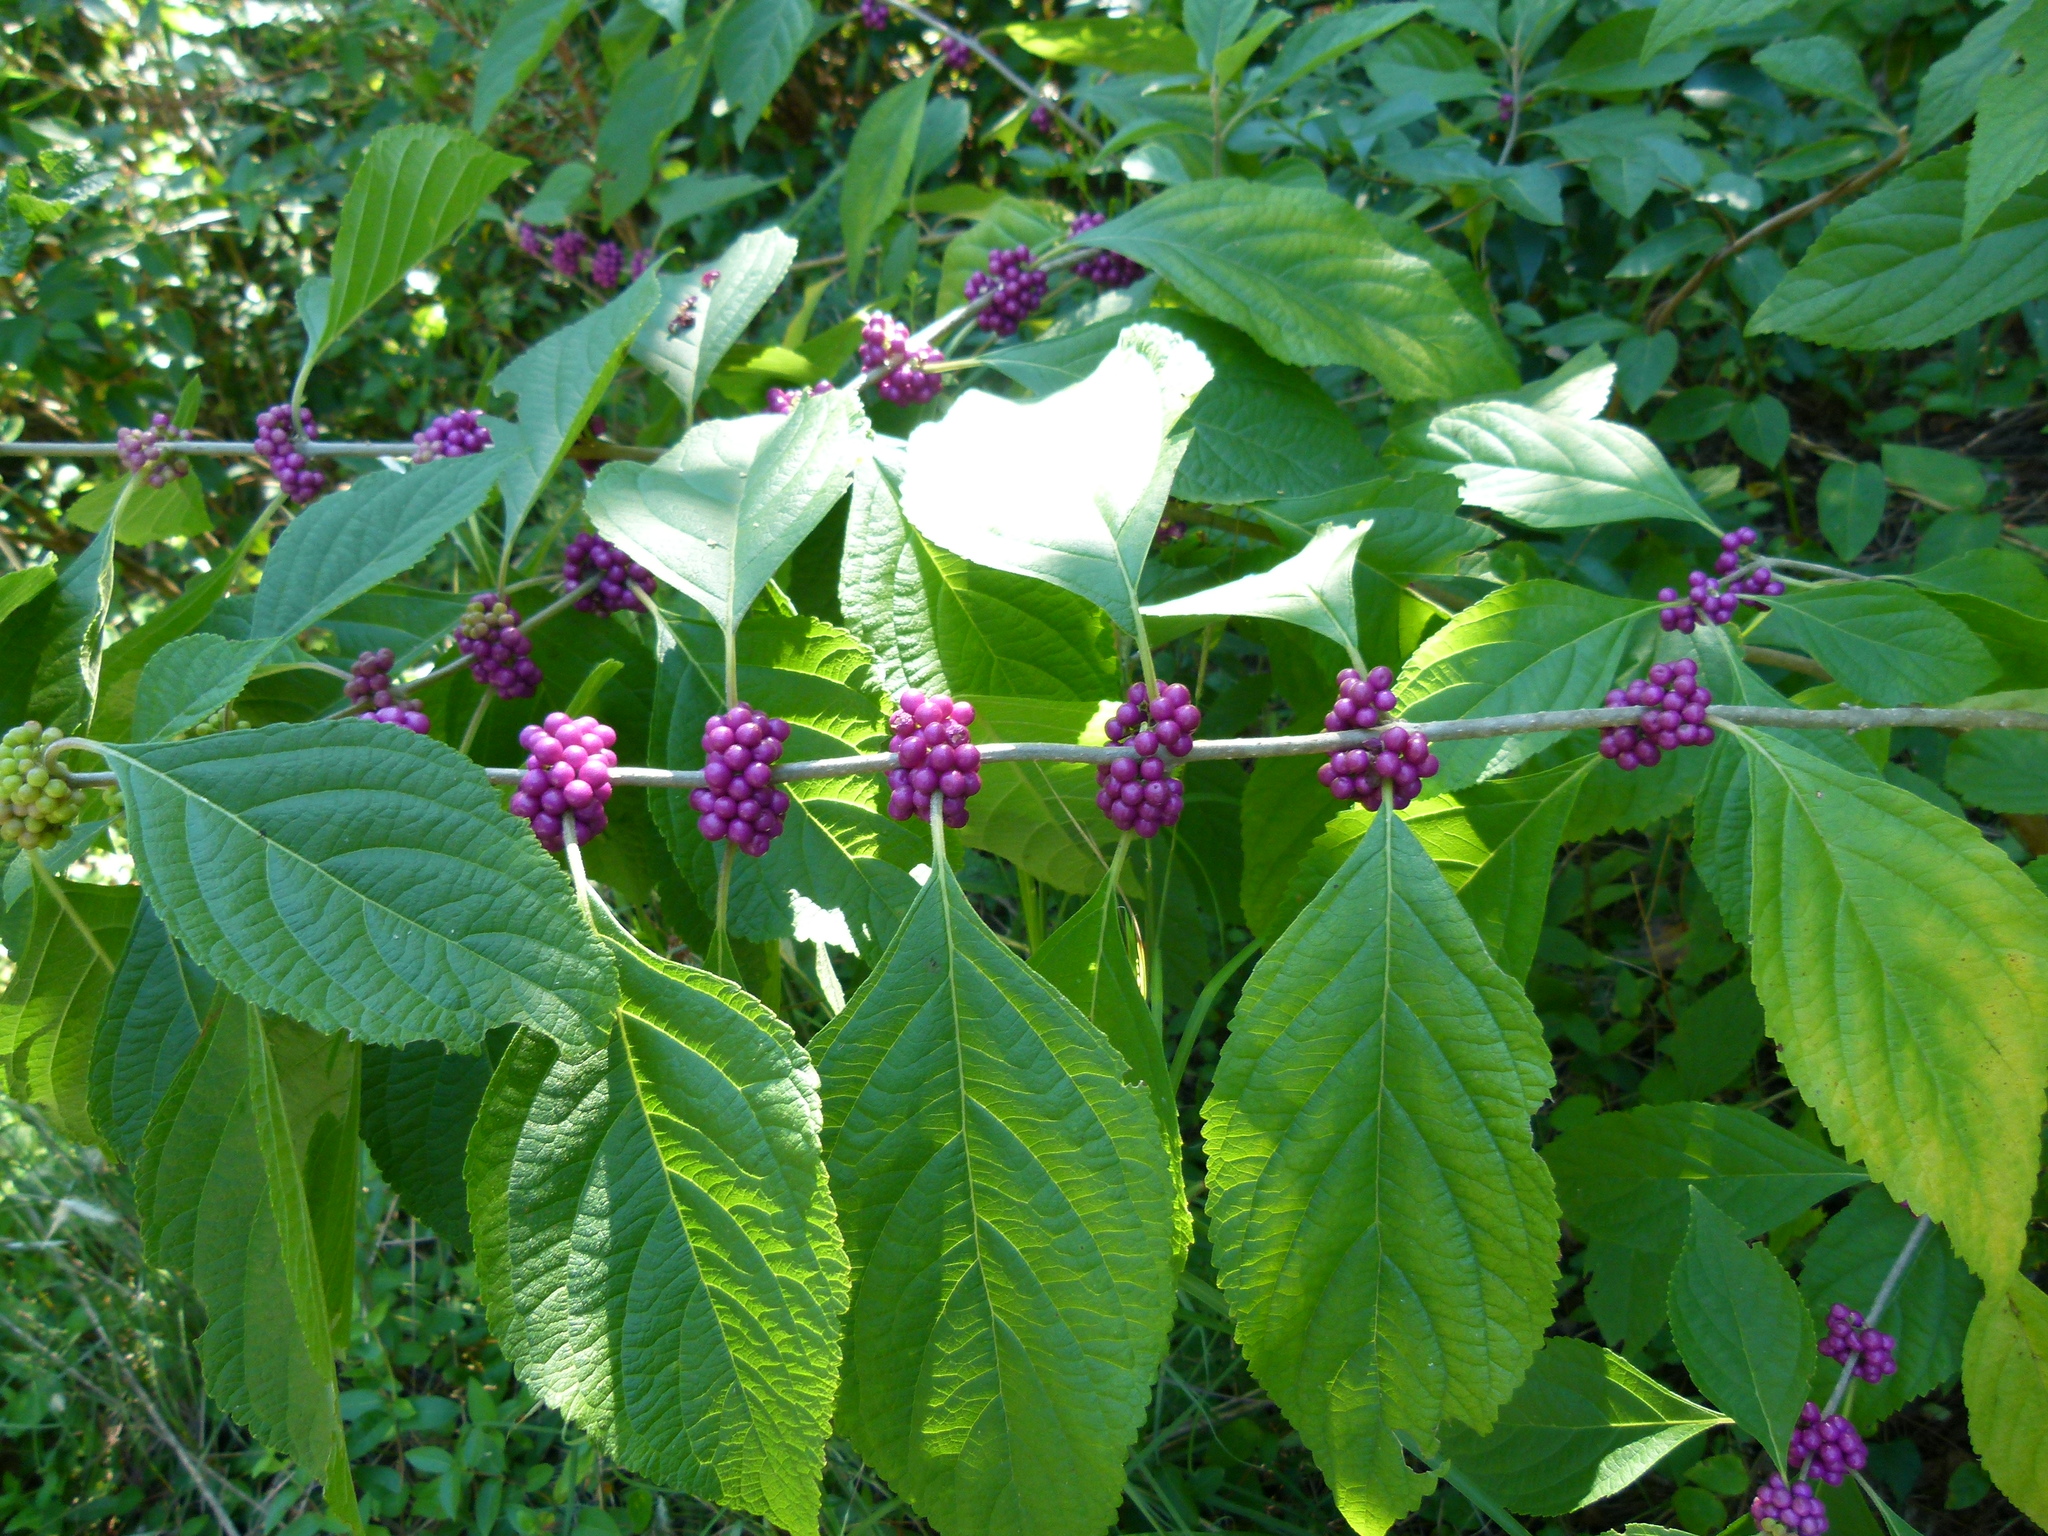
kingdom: Plantae
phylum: Tracheophyta
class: Magnoliopsida
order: Lamiales
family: Lamiaceae
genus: Callicarpa
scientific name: Callicarpa americana
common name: American beautyberry
